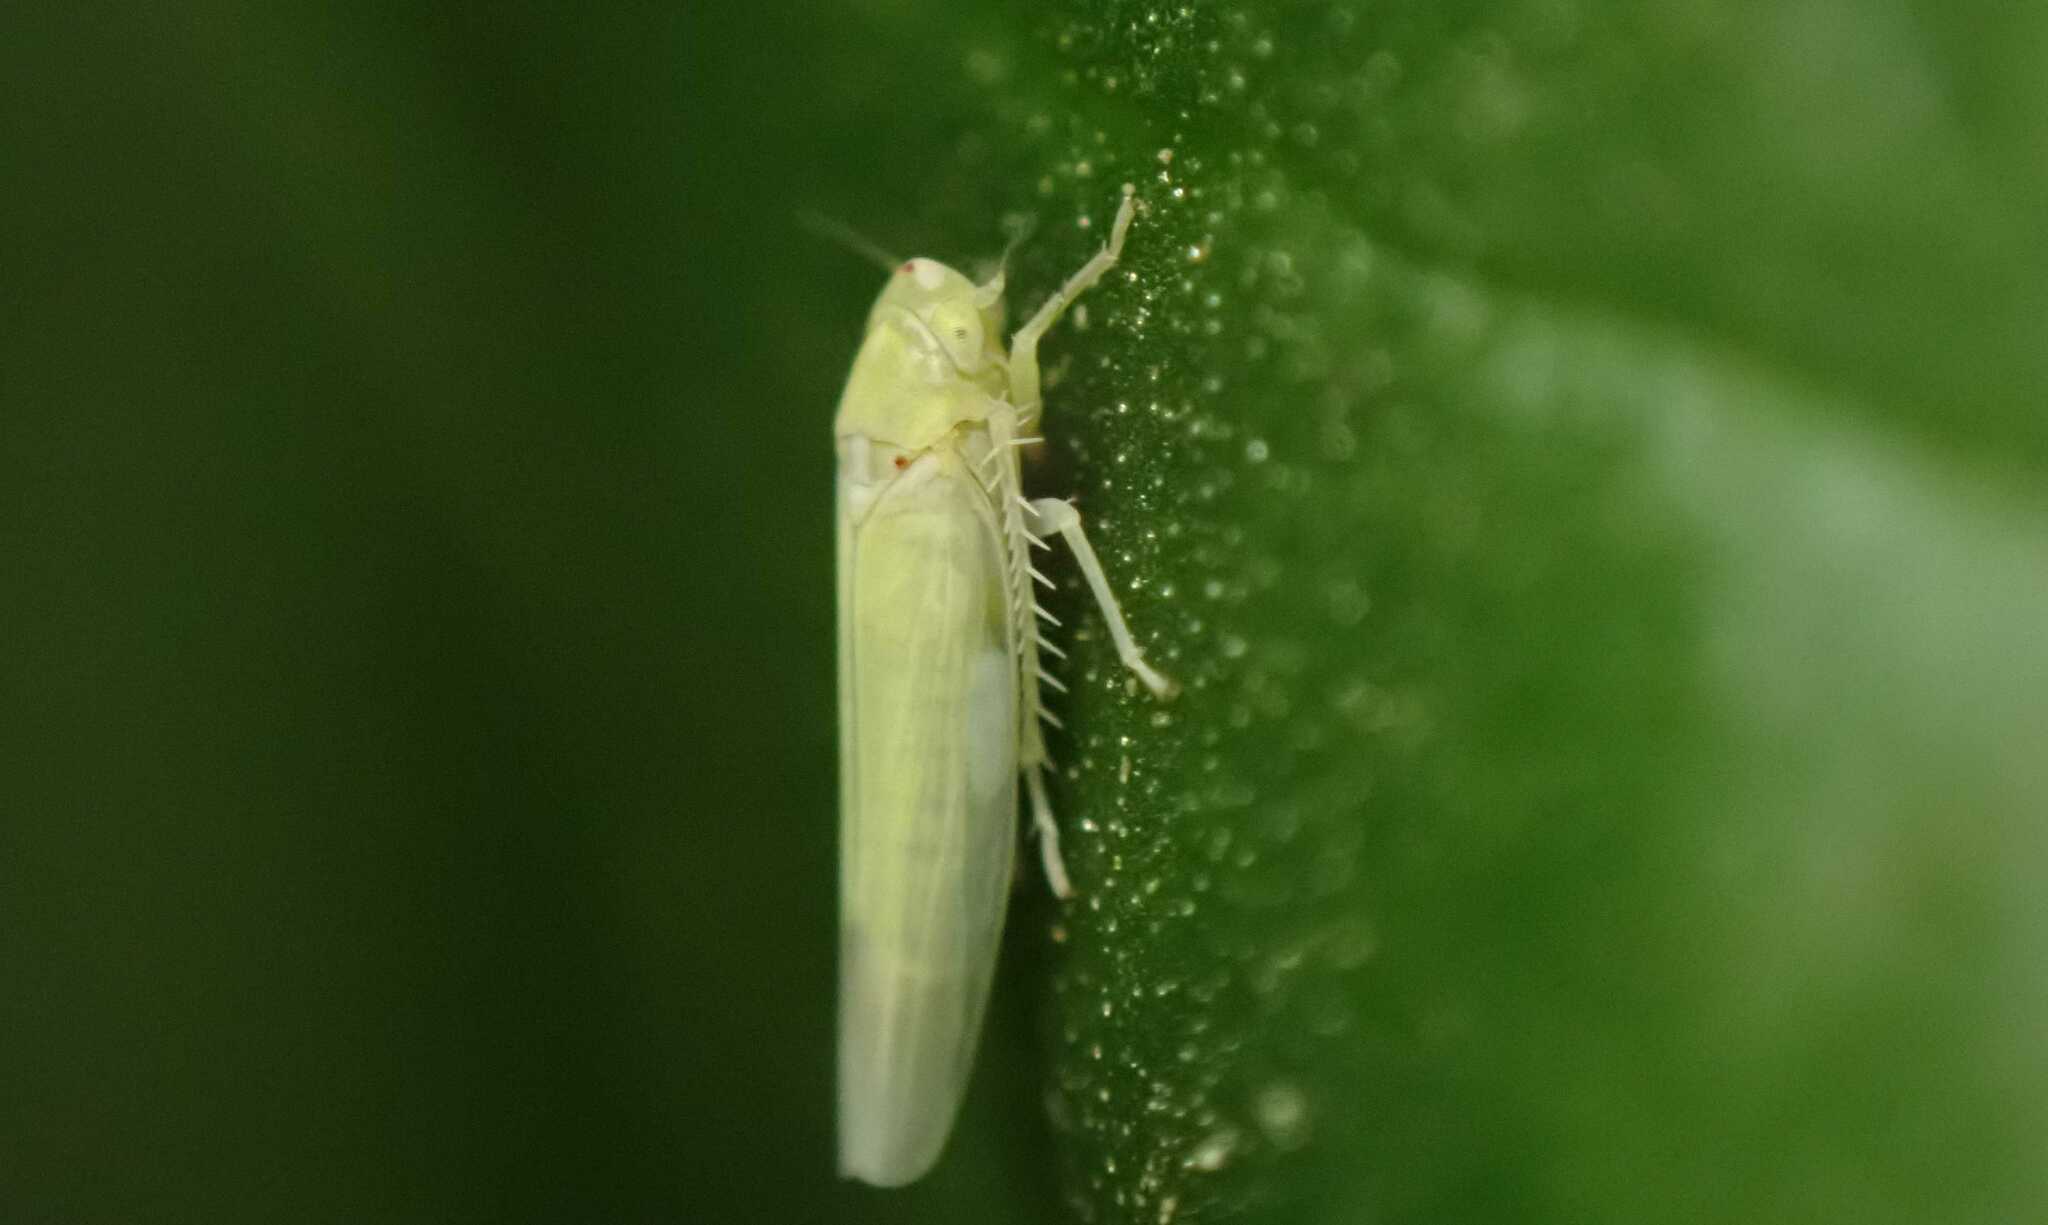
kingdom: Animalia
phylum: Arthropoda
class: Insecta
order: Hemiptera
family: Cicadellidae
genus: Zygina
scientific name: Zygina nivea
